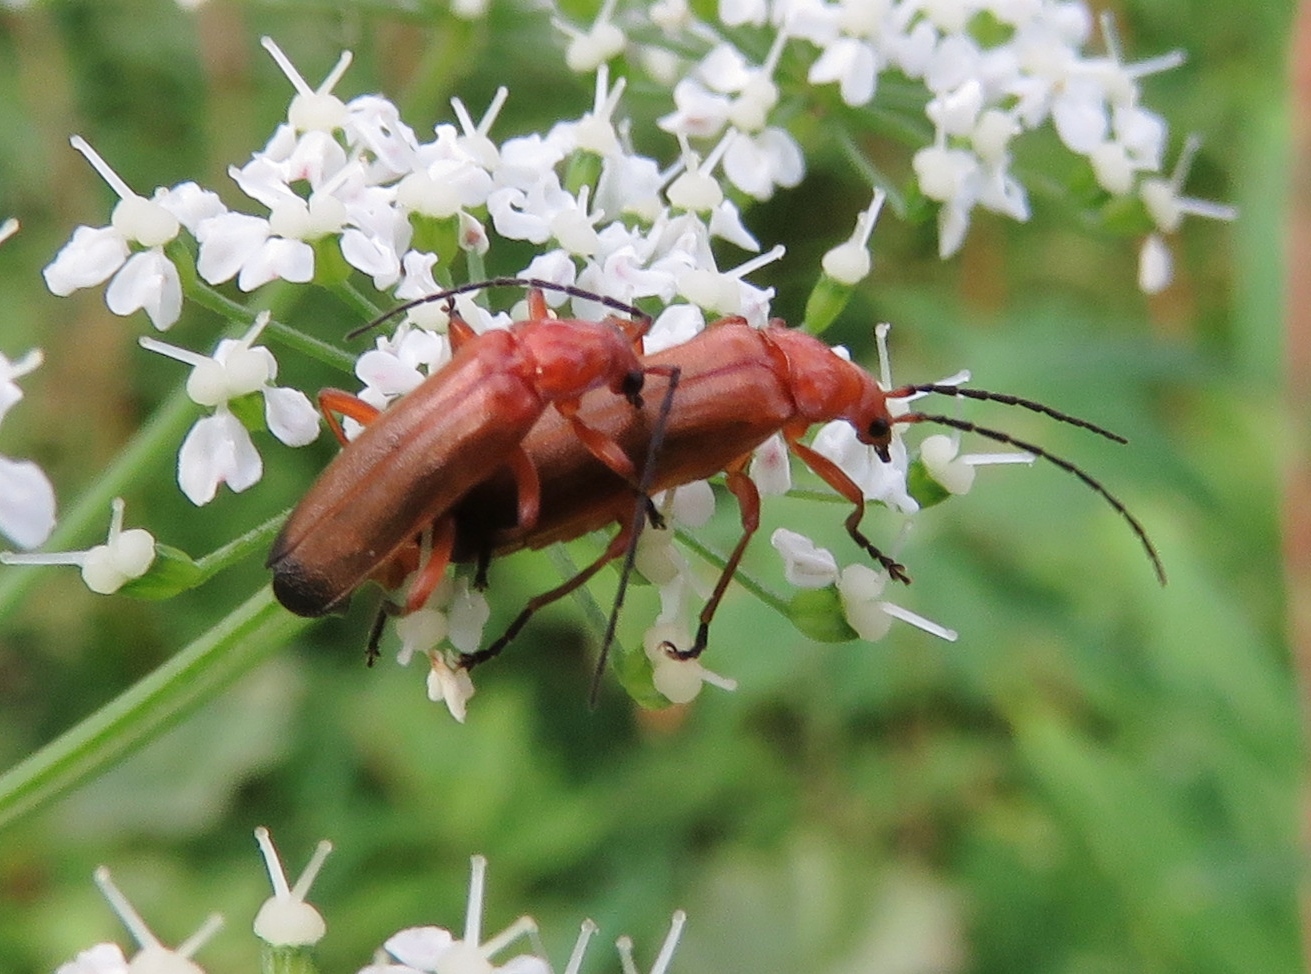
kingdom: Animalia
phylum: Arthropoda
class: Insecta
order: Coleoptera
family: Cantharidae
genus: Rhagonycha
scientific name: Rhagonycha fulva
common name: Common red soldier beetle
